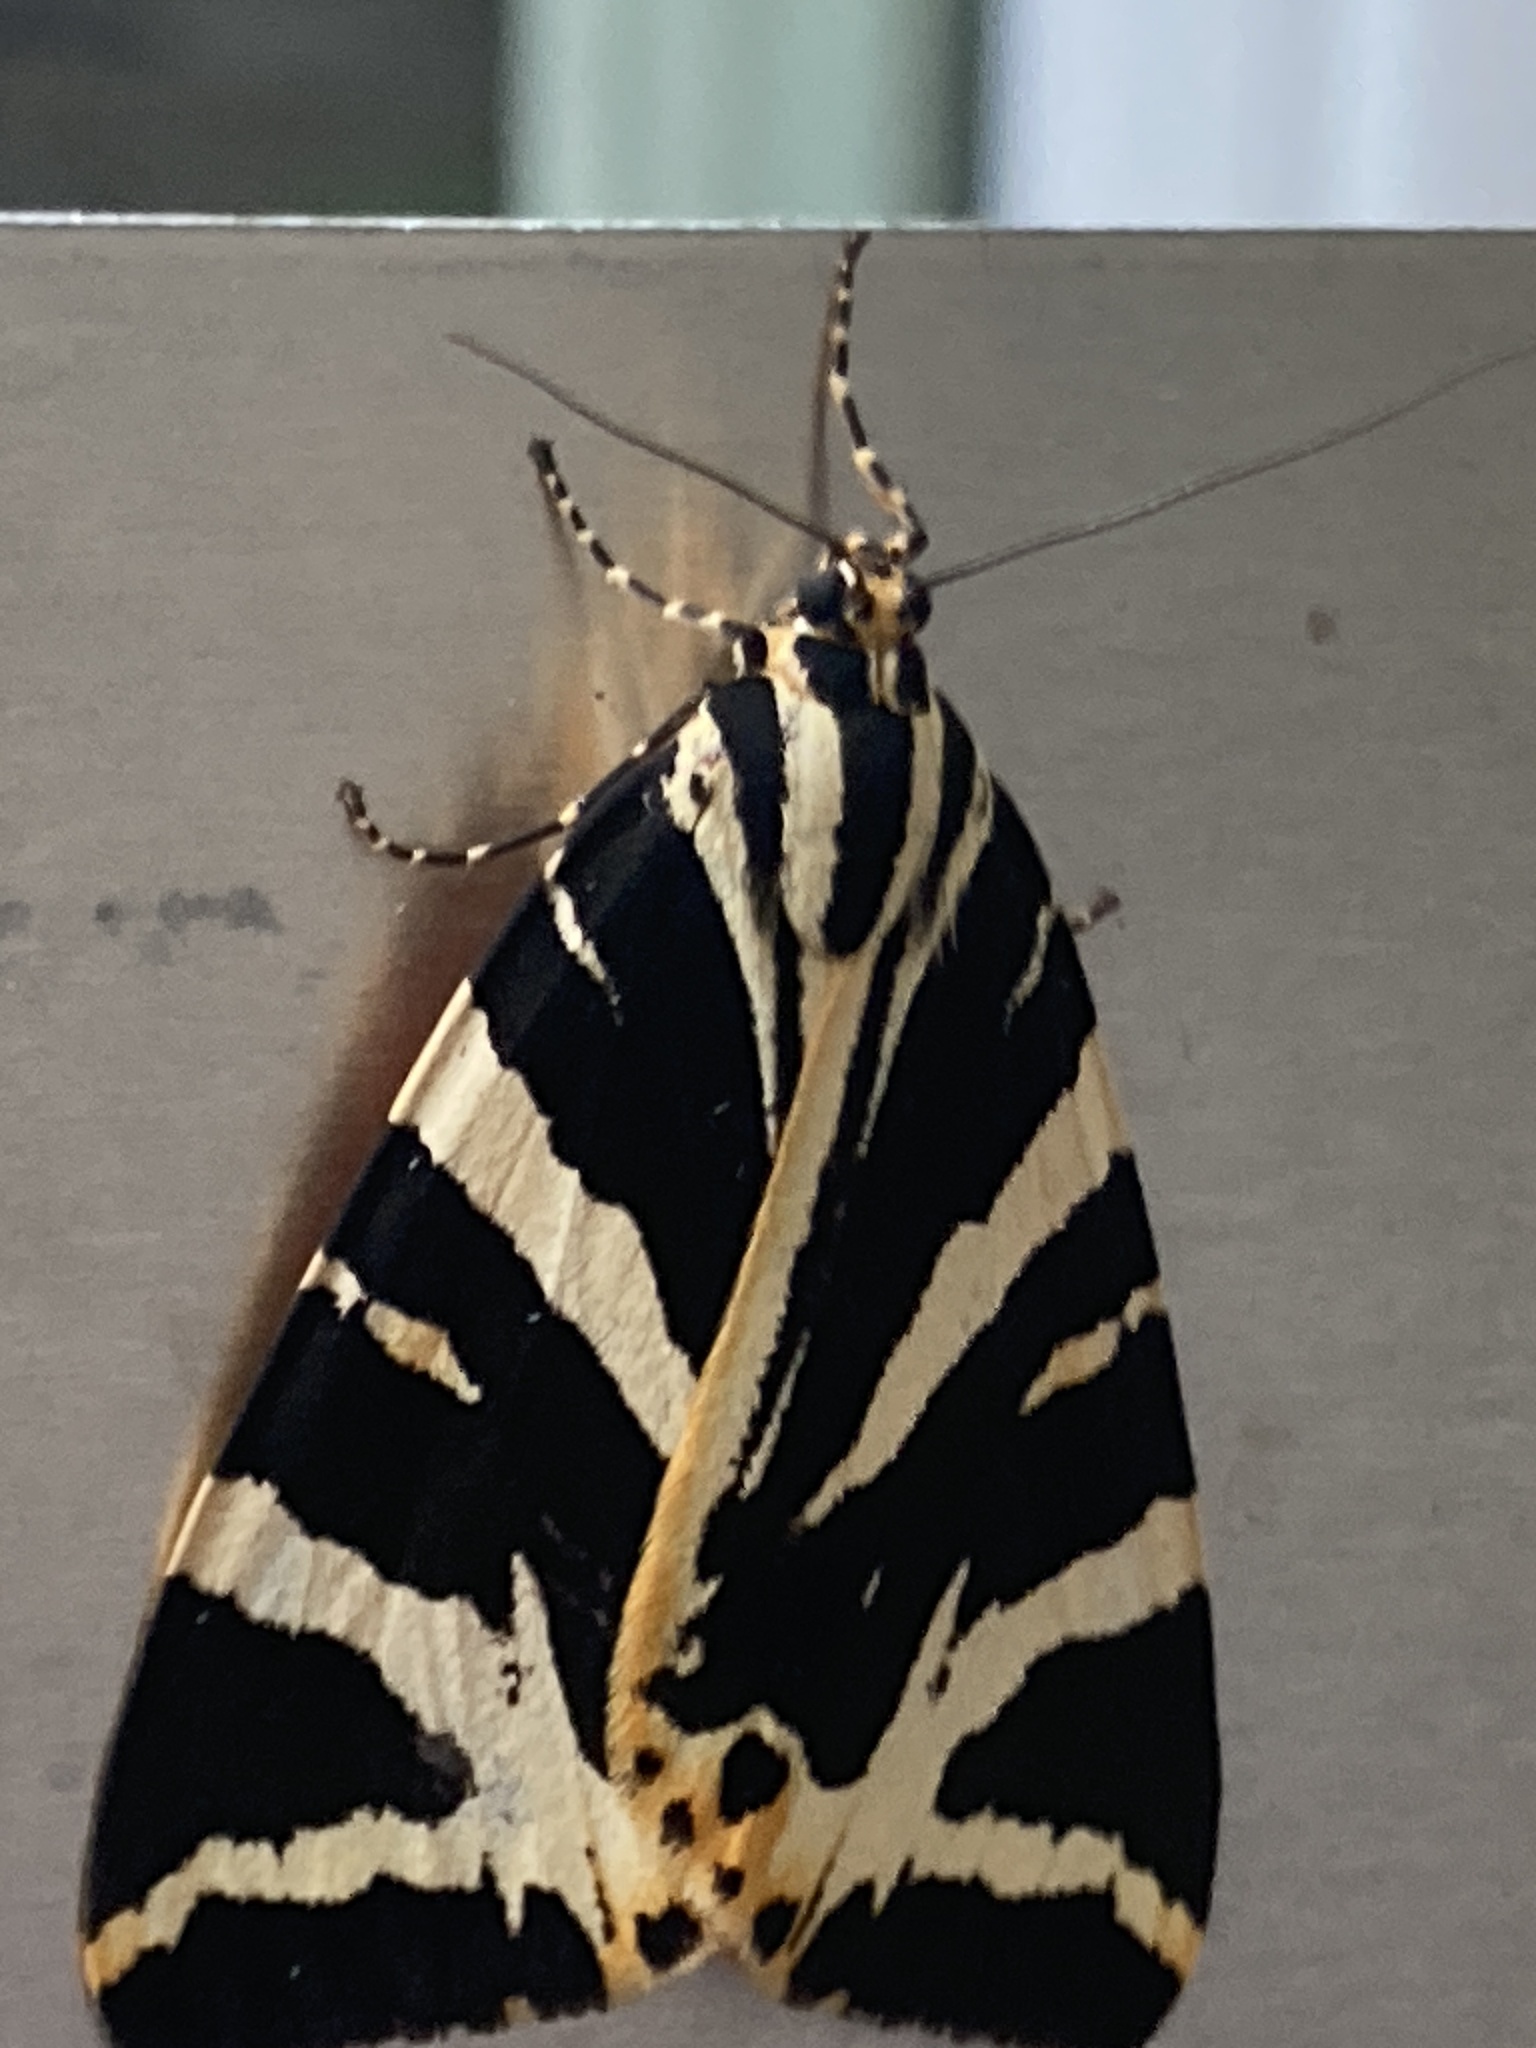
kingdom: Animalia
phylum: Arthropoda
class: Insecta
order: Lepidoptera
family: Erebidae
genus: Euplagia
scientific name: Euplagia quadripunctaria
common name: Jersey tiger
